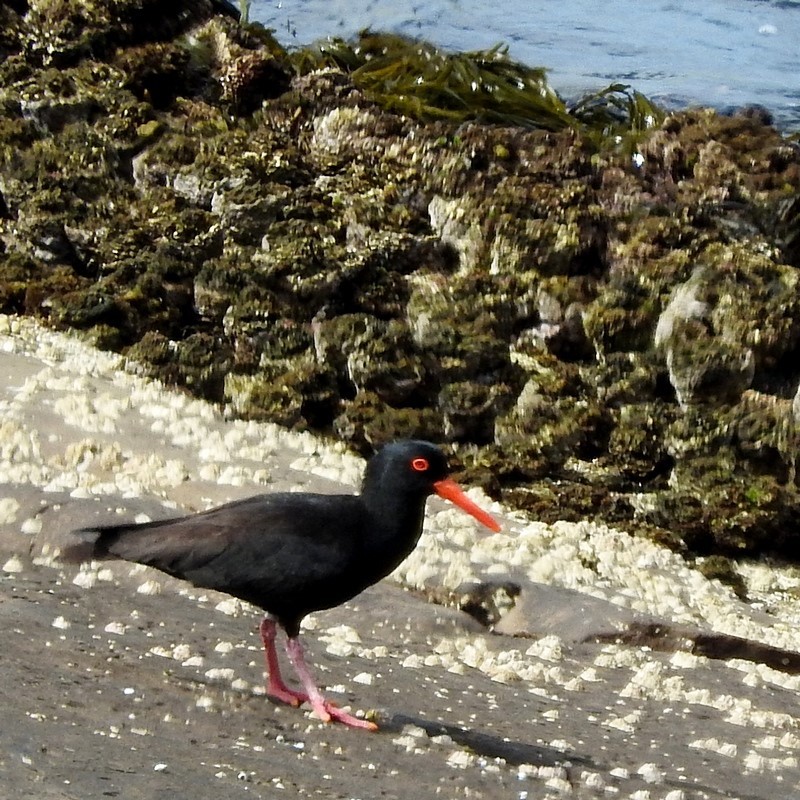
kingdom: Animalia
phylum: Chordata
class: Aves
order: Charadriiformes
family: Haematopodidae
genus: Haematopus
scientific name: Haematopus fuliginosus
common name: Sooty oystercatcher
